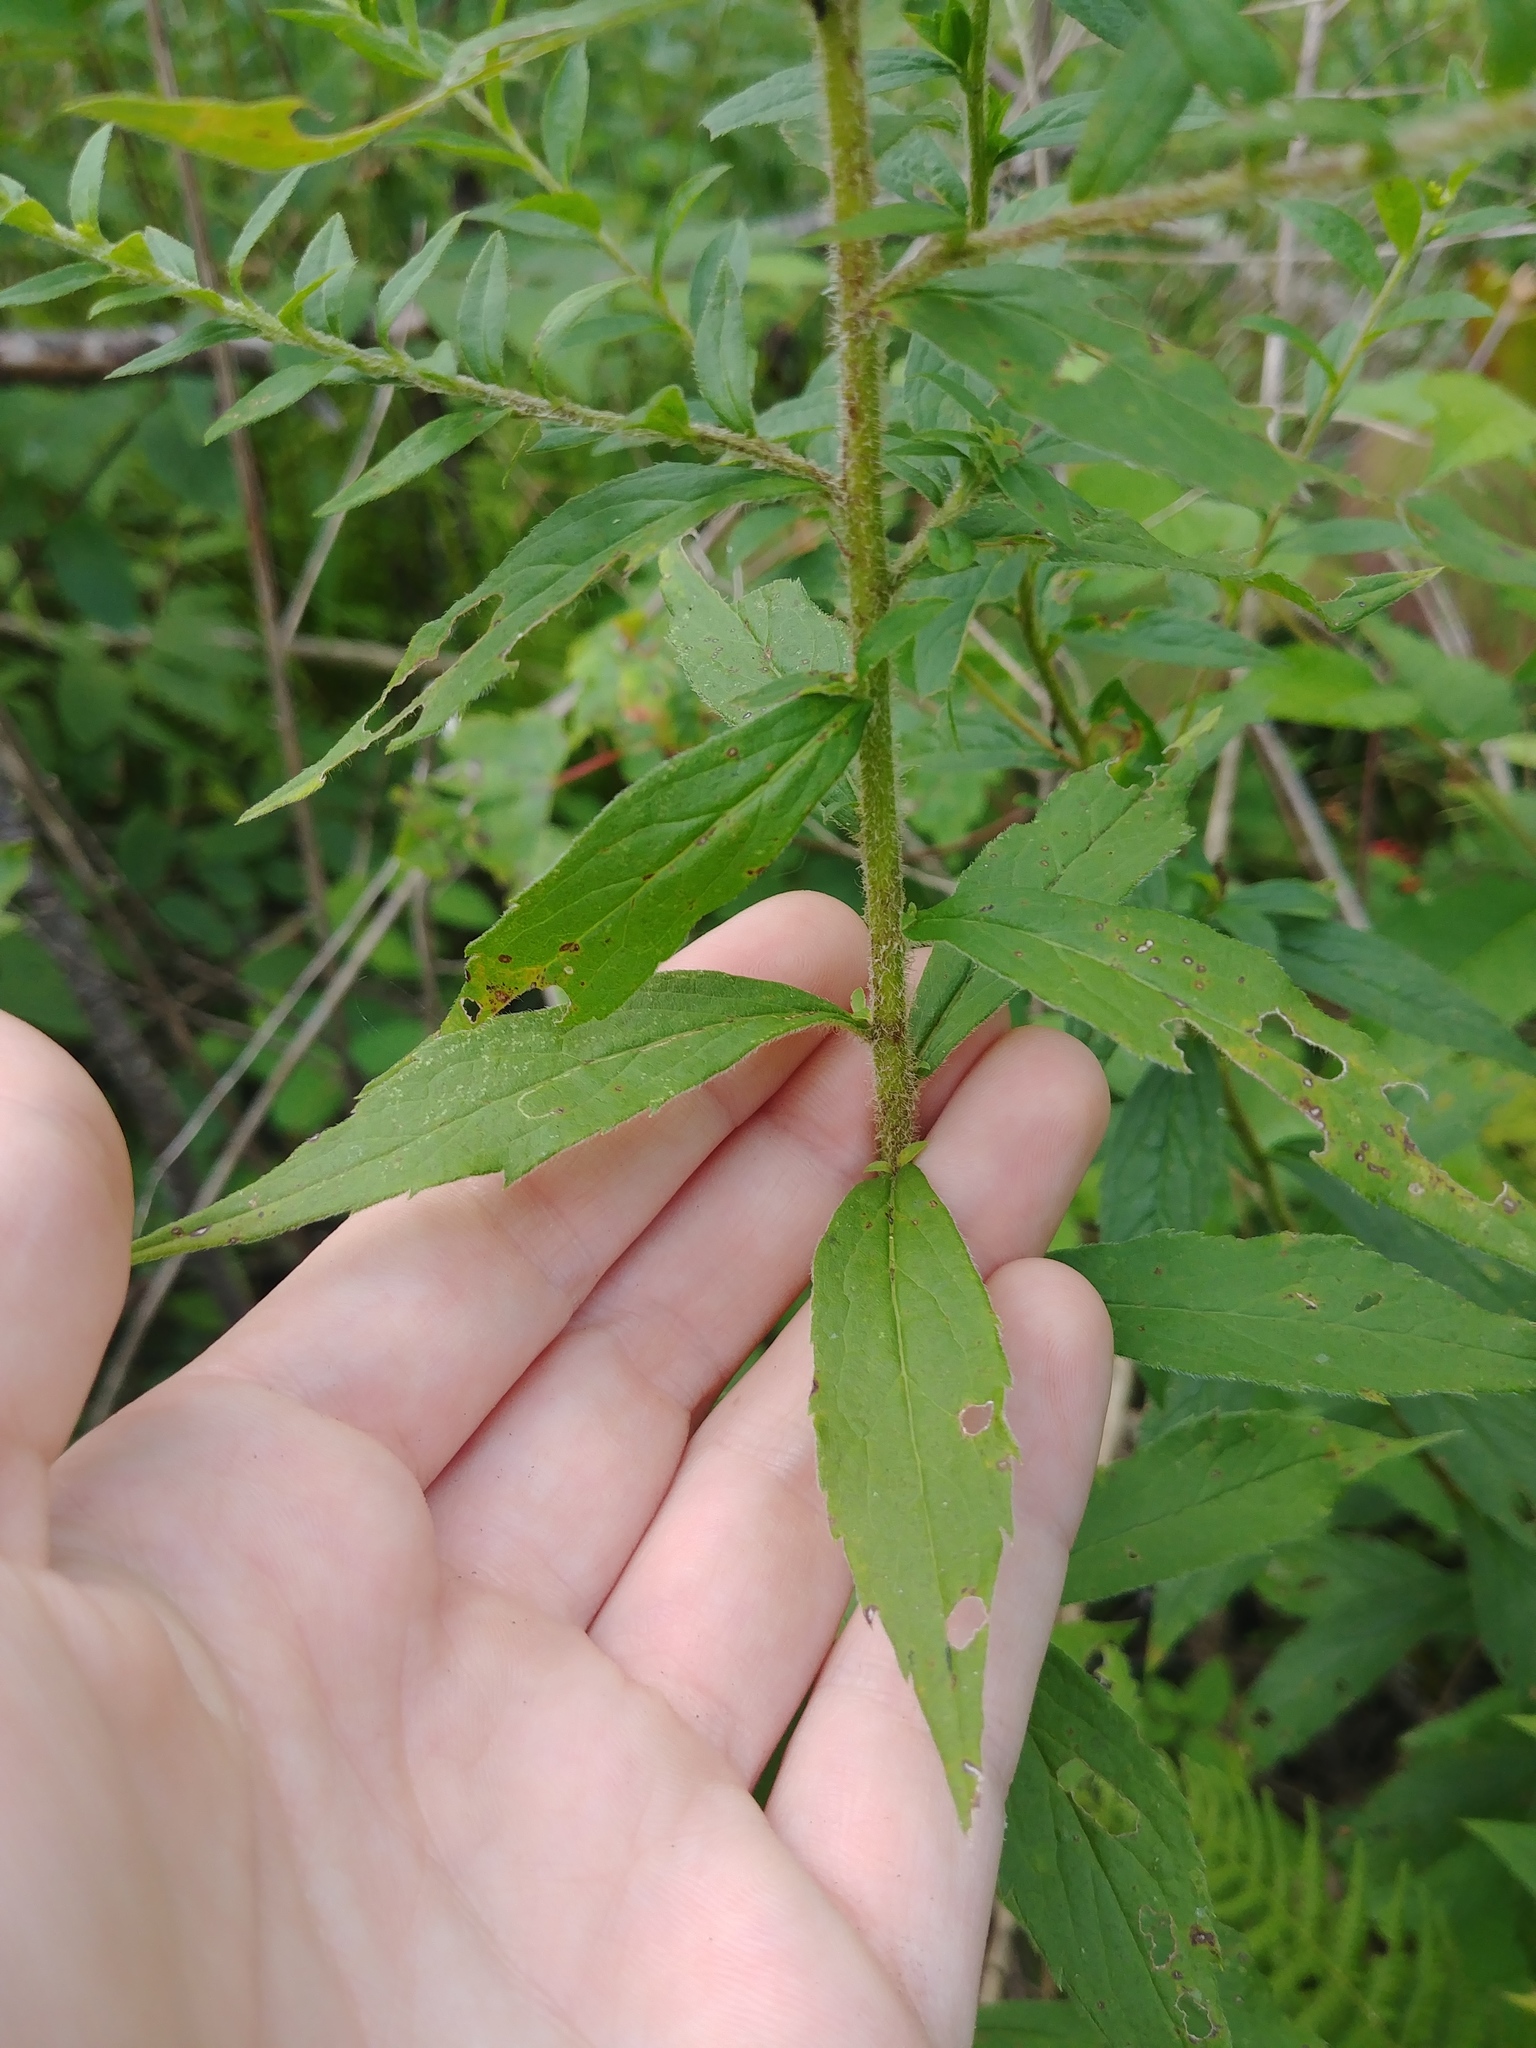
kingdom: Plantae
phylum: Tracheophyta
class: Magnoliopsida
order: Asterales
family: Asteraceae
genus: Solidago
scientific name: Solidago rugosa
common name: Rough-stemmed goldenrod
